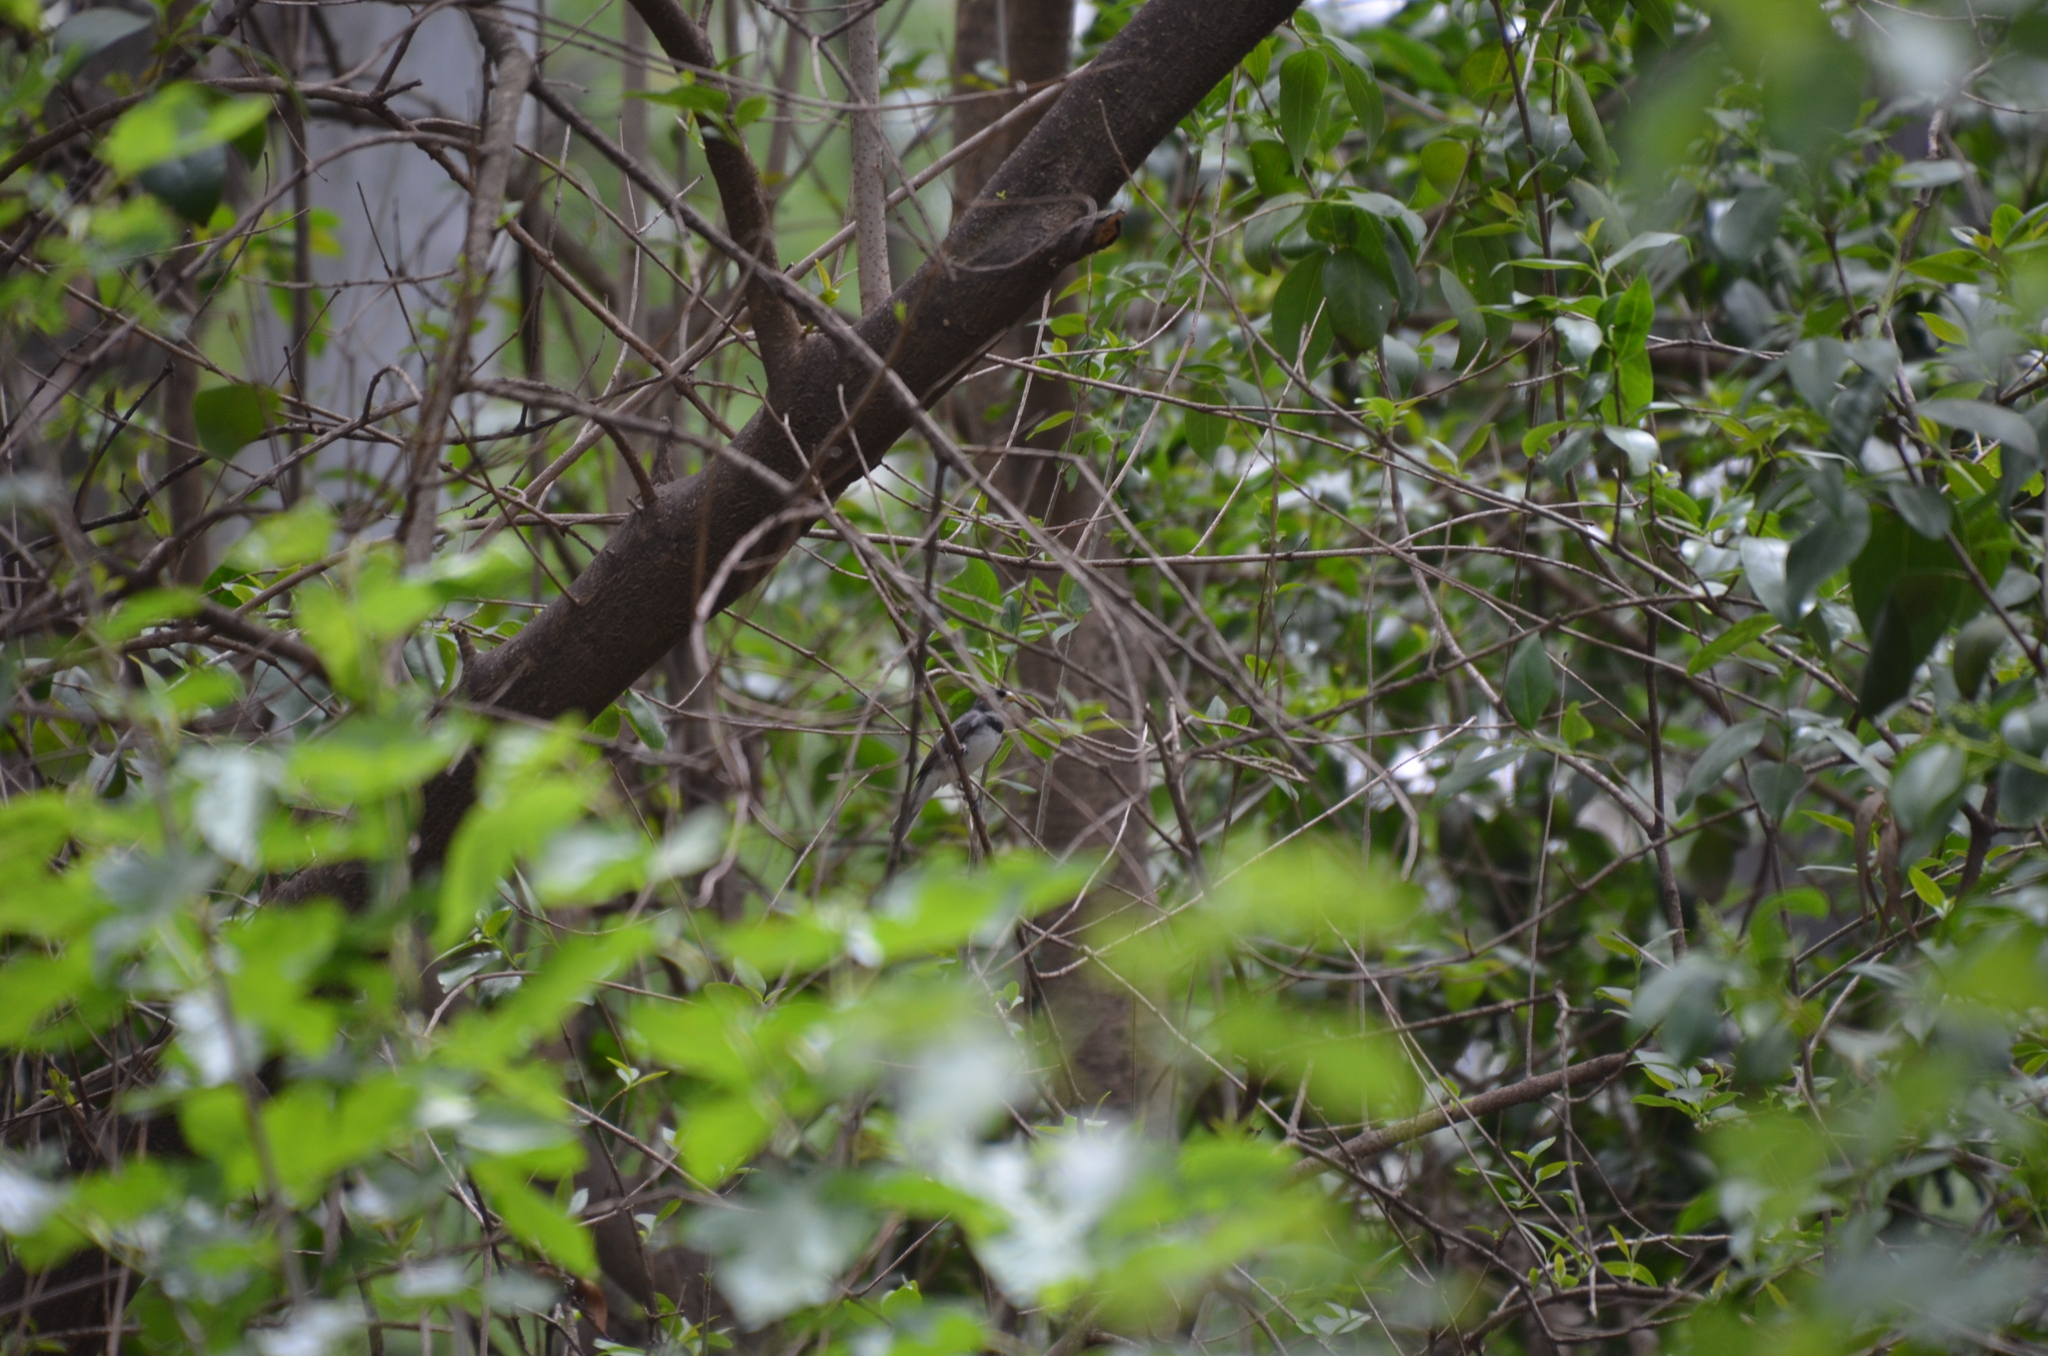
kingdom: Animalia
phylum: Chordata
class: Aves
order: Passeriformes
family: Thraupidae
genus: Sporophila
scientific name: Sporophila caerulescens
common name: Double-collared seedeater
